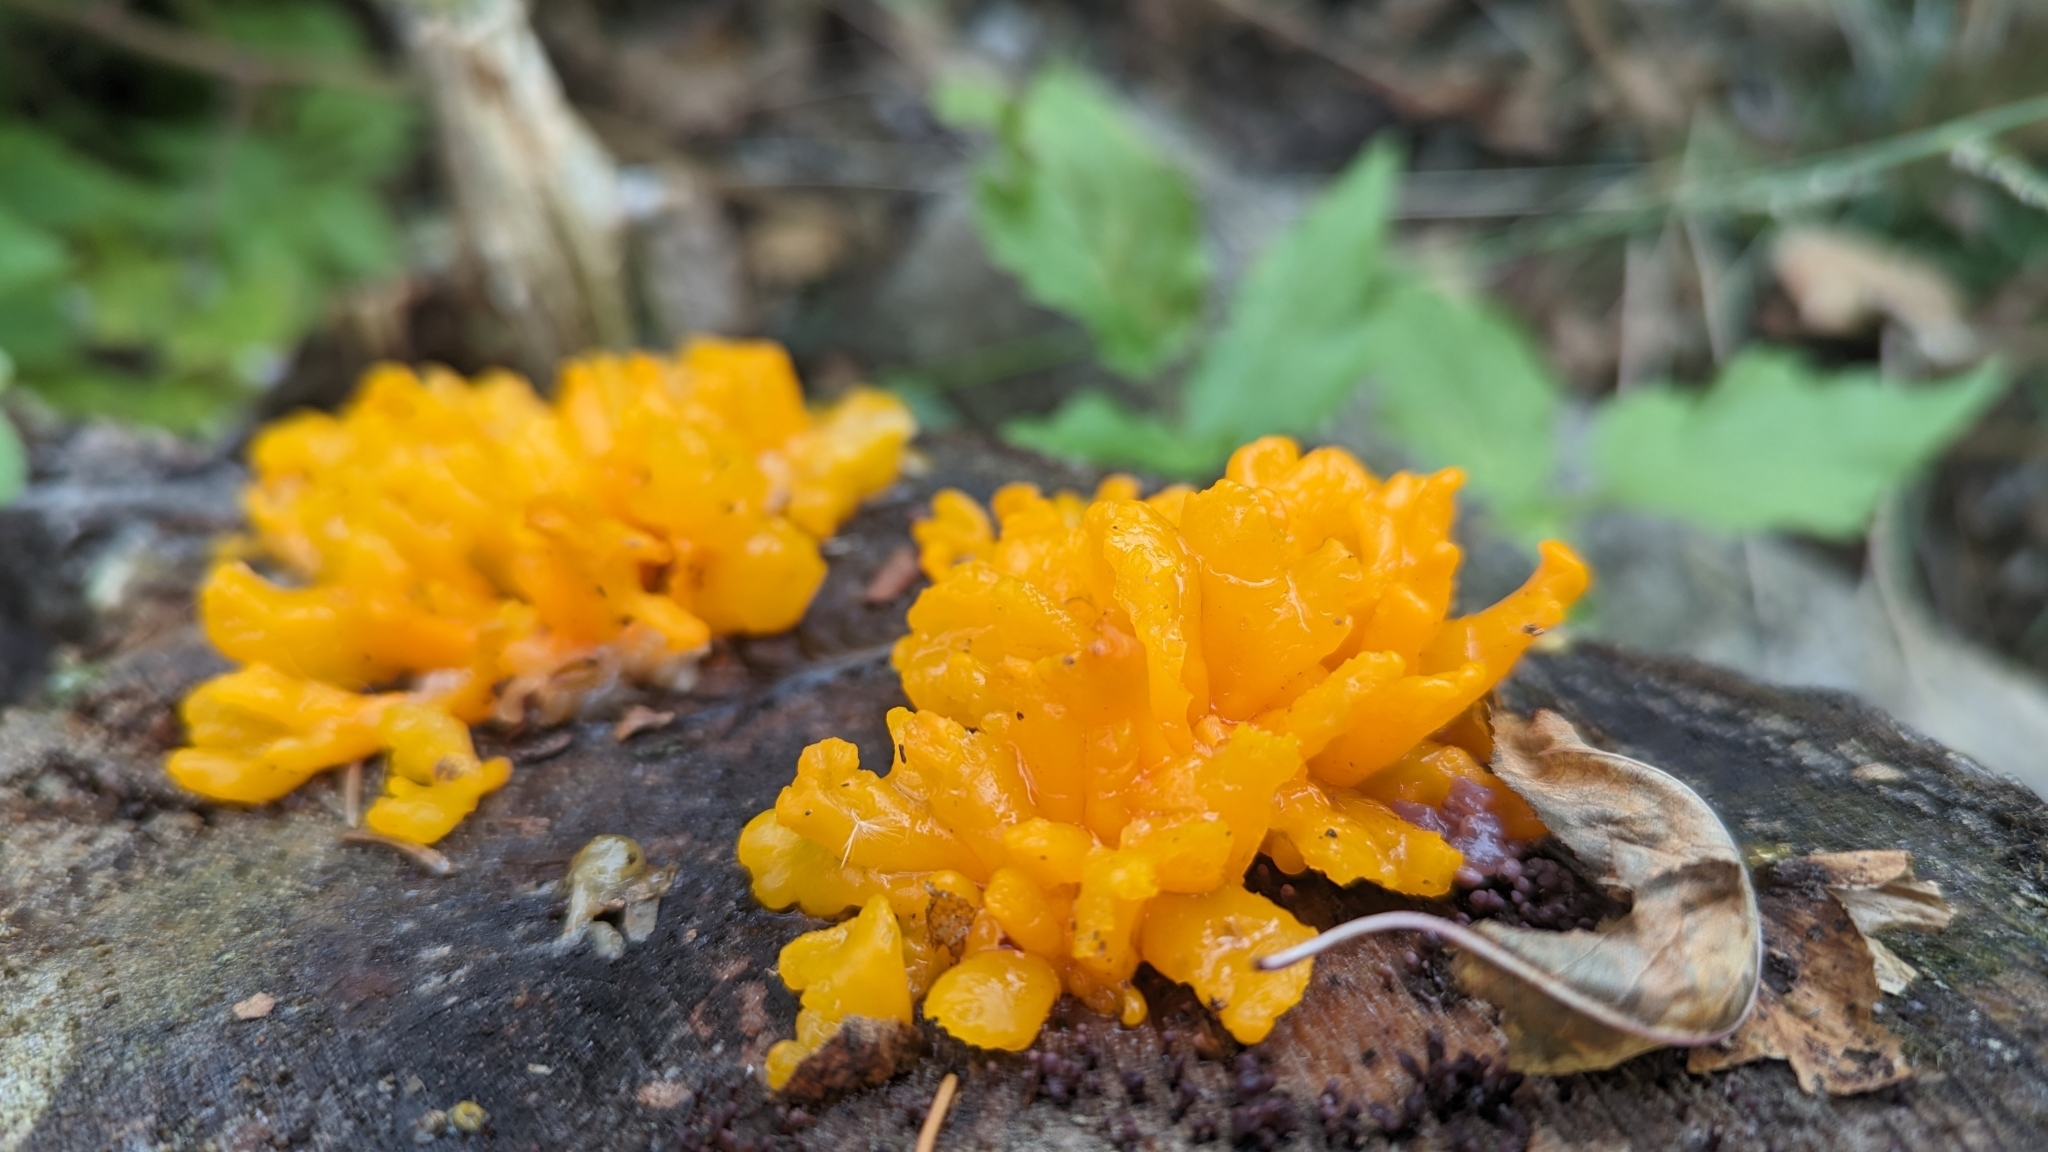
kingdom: Fungi
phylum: Basidiomycota
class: Dacrymycetes
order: Dacrymycetales
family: Dacrymycetaceae
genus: Dacrymyces
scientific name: Dacrymyces chrysospermus
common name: Orange jelly spot
